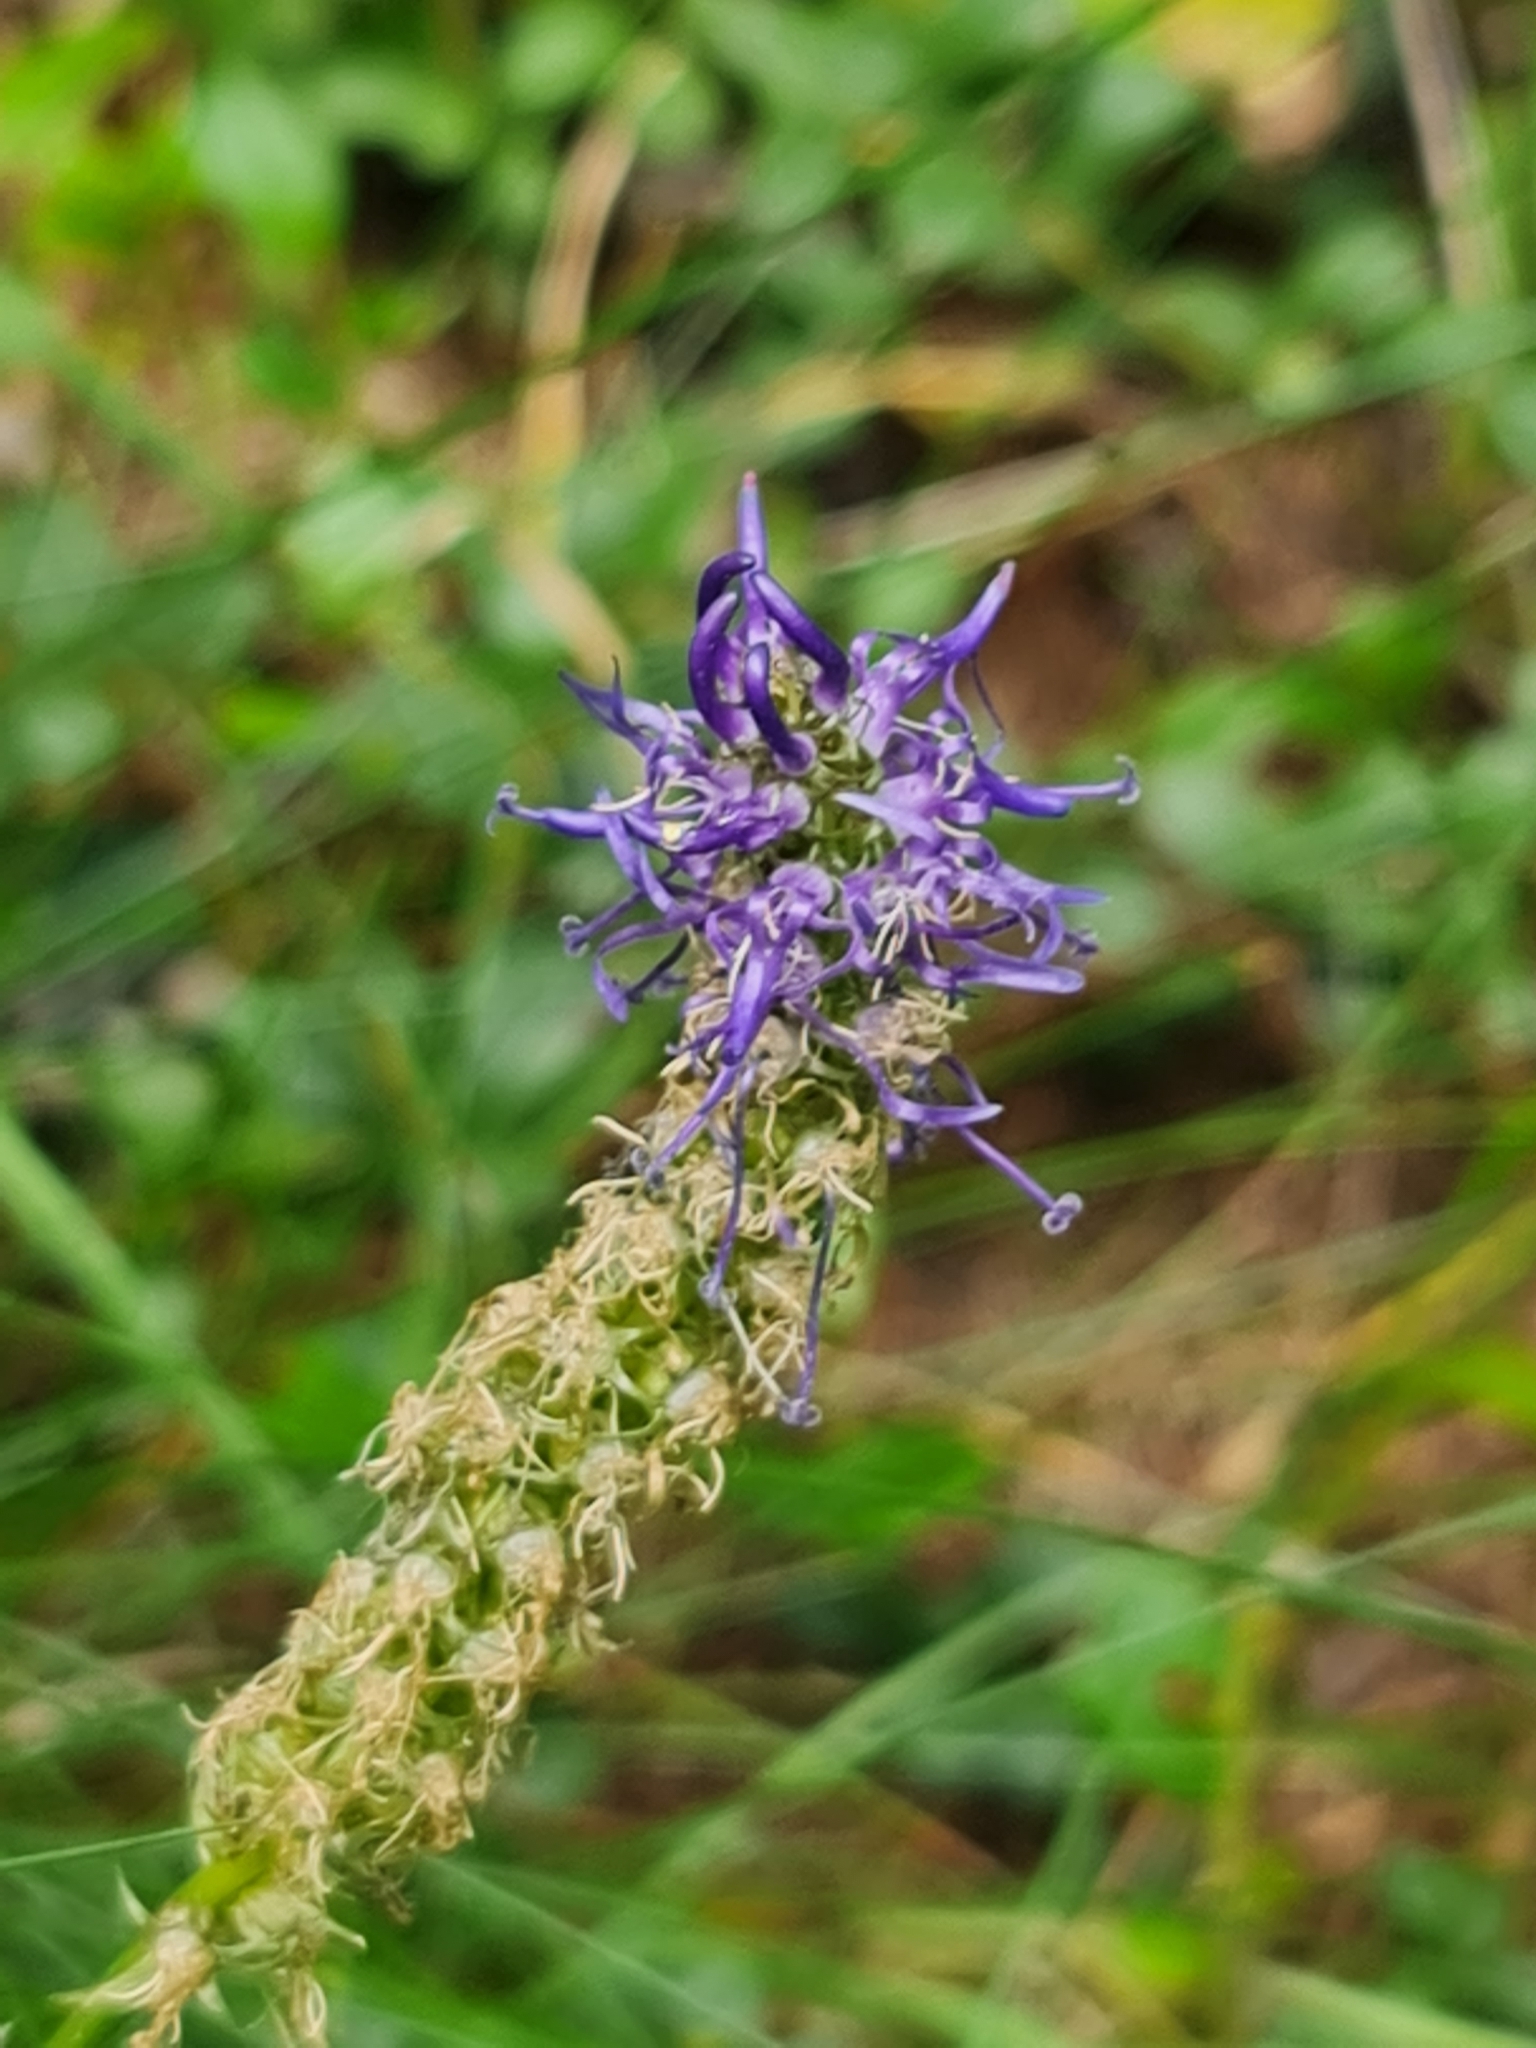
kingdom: Plantae
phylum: Tracheophyta
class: Magnoliopsida
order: Asterales
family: Campanulaceae
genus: Phyteuma
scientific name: Phyteuma betonicifolium
